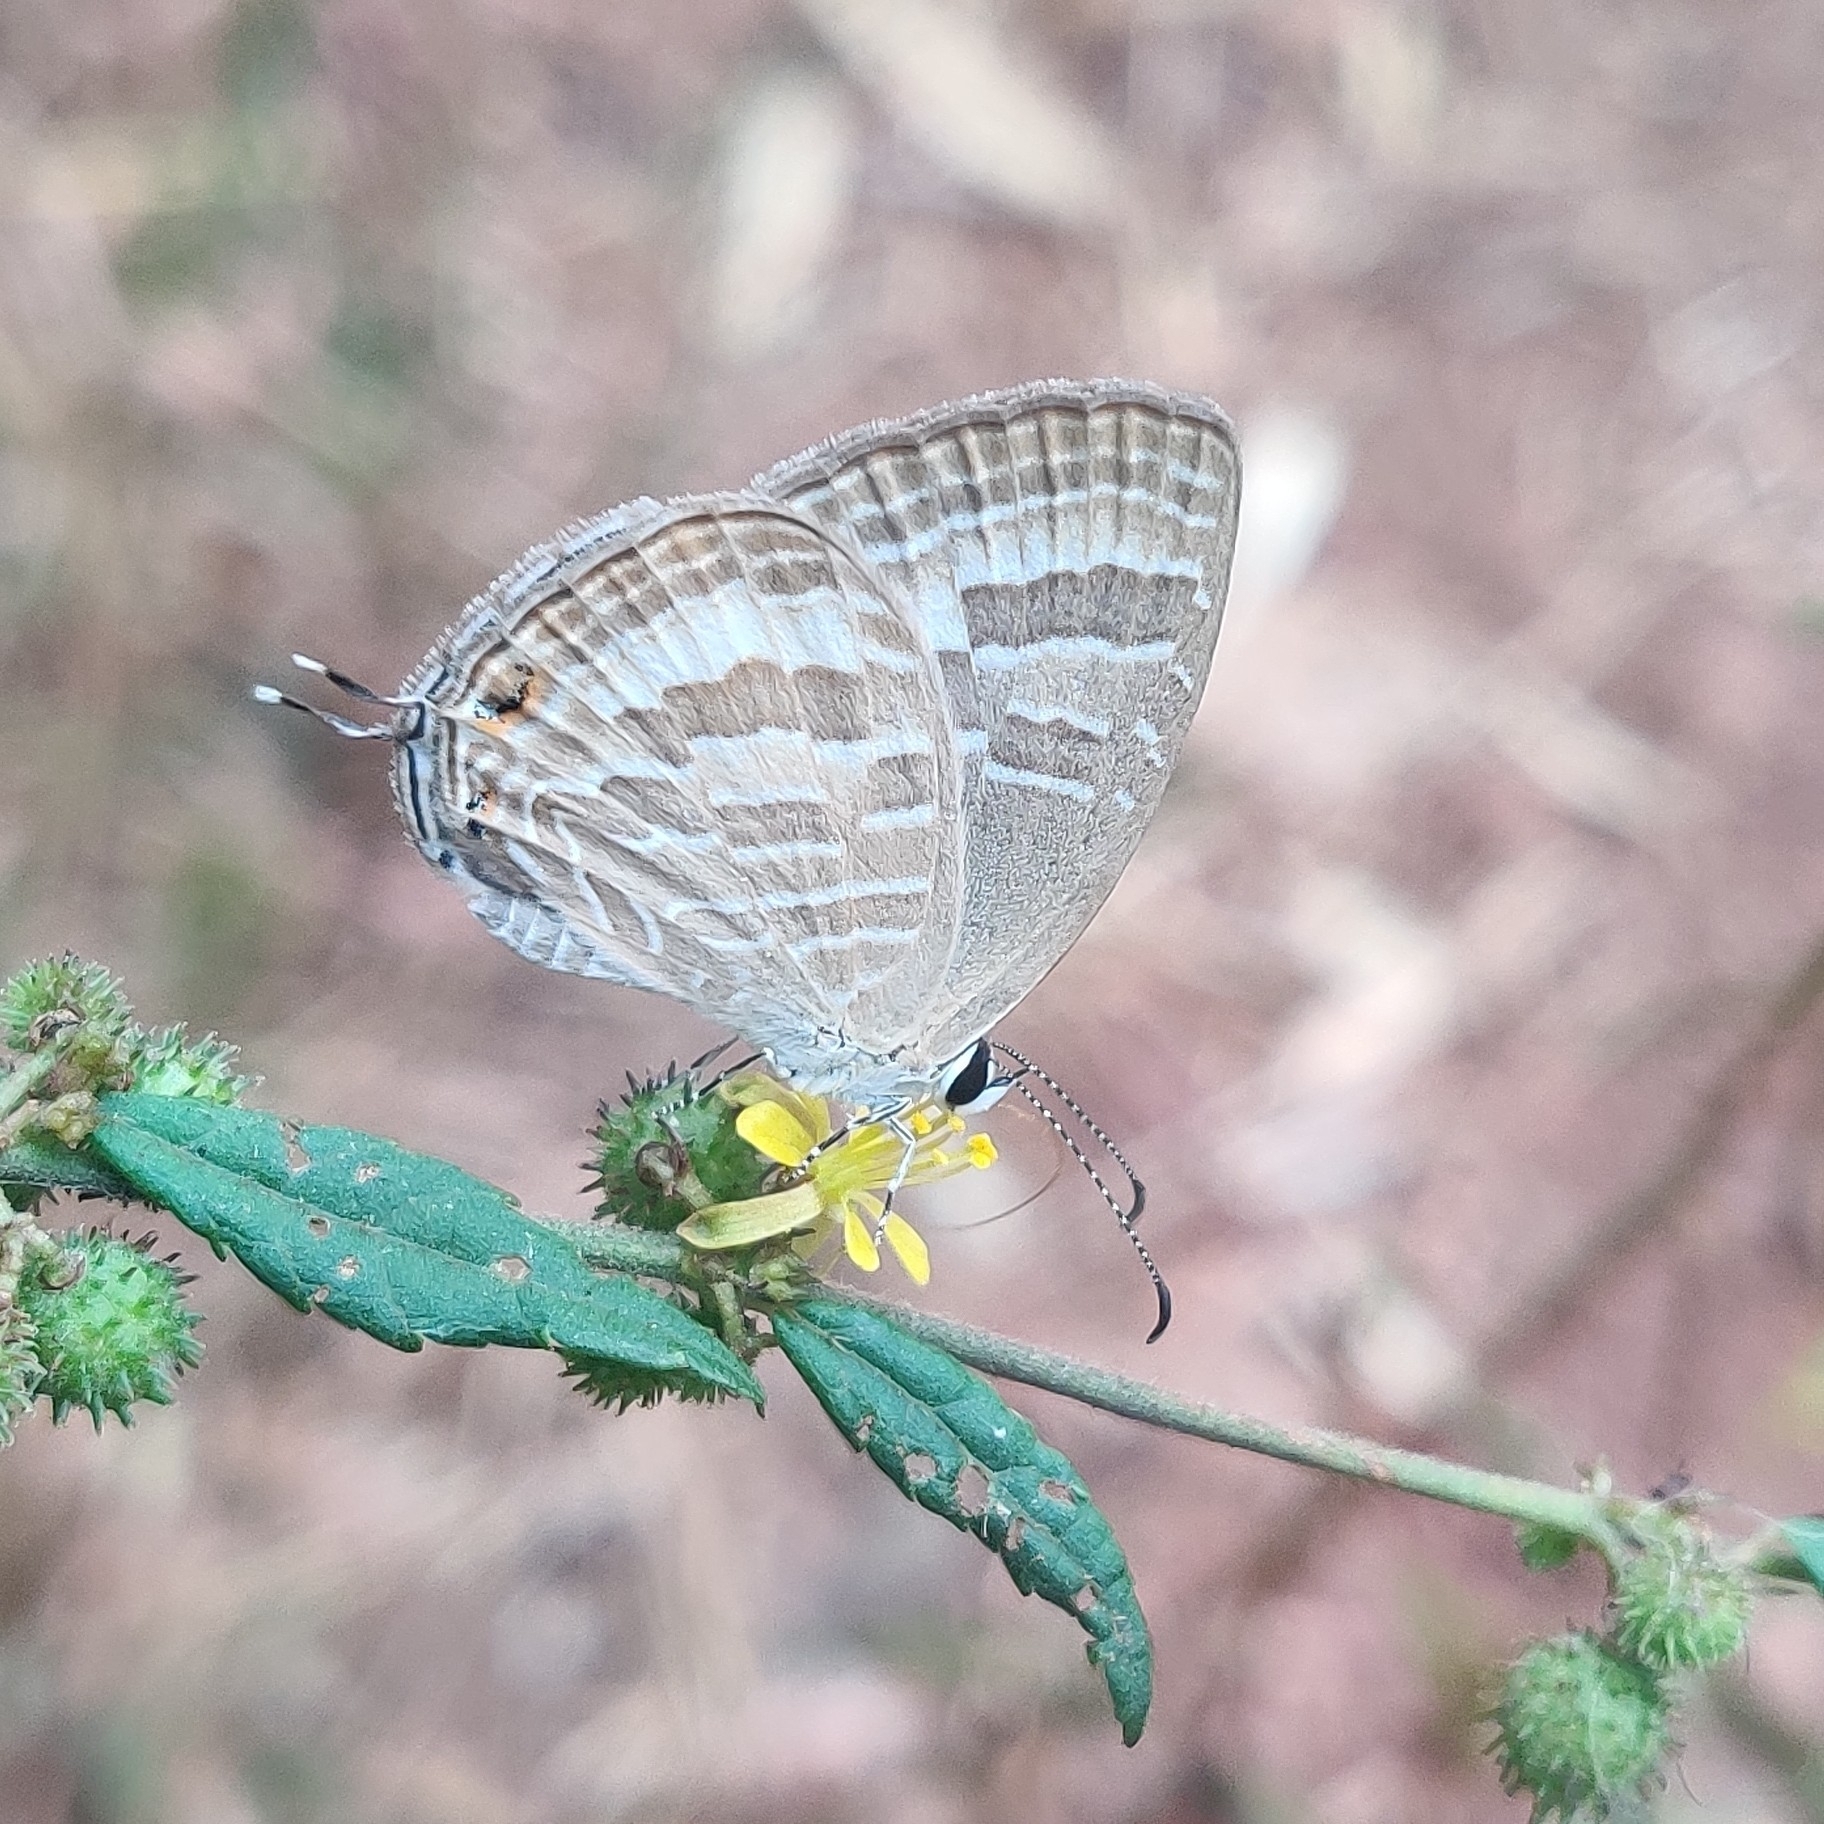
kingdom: Animalia
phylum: Arthropoda
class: Insecta
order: Lepidoptera
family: Lycaenidae
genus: Jamides
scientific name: Jamides celeno
